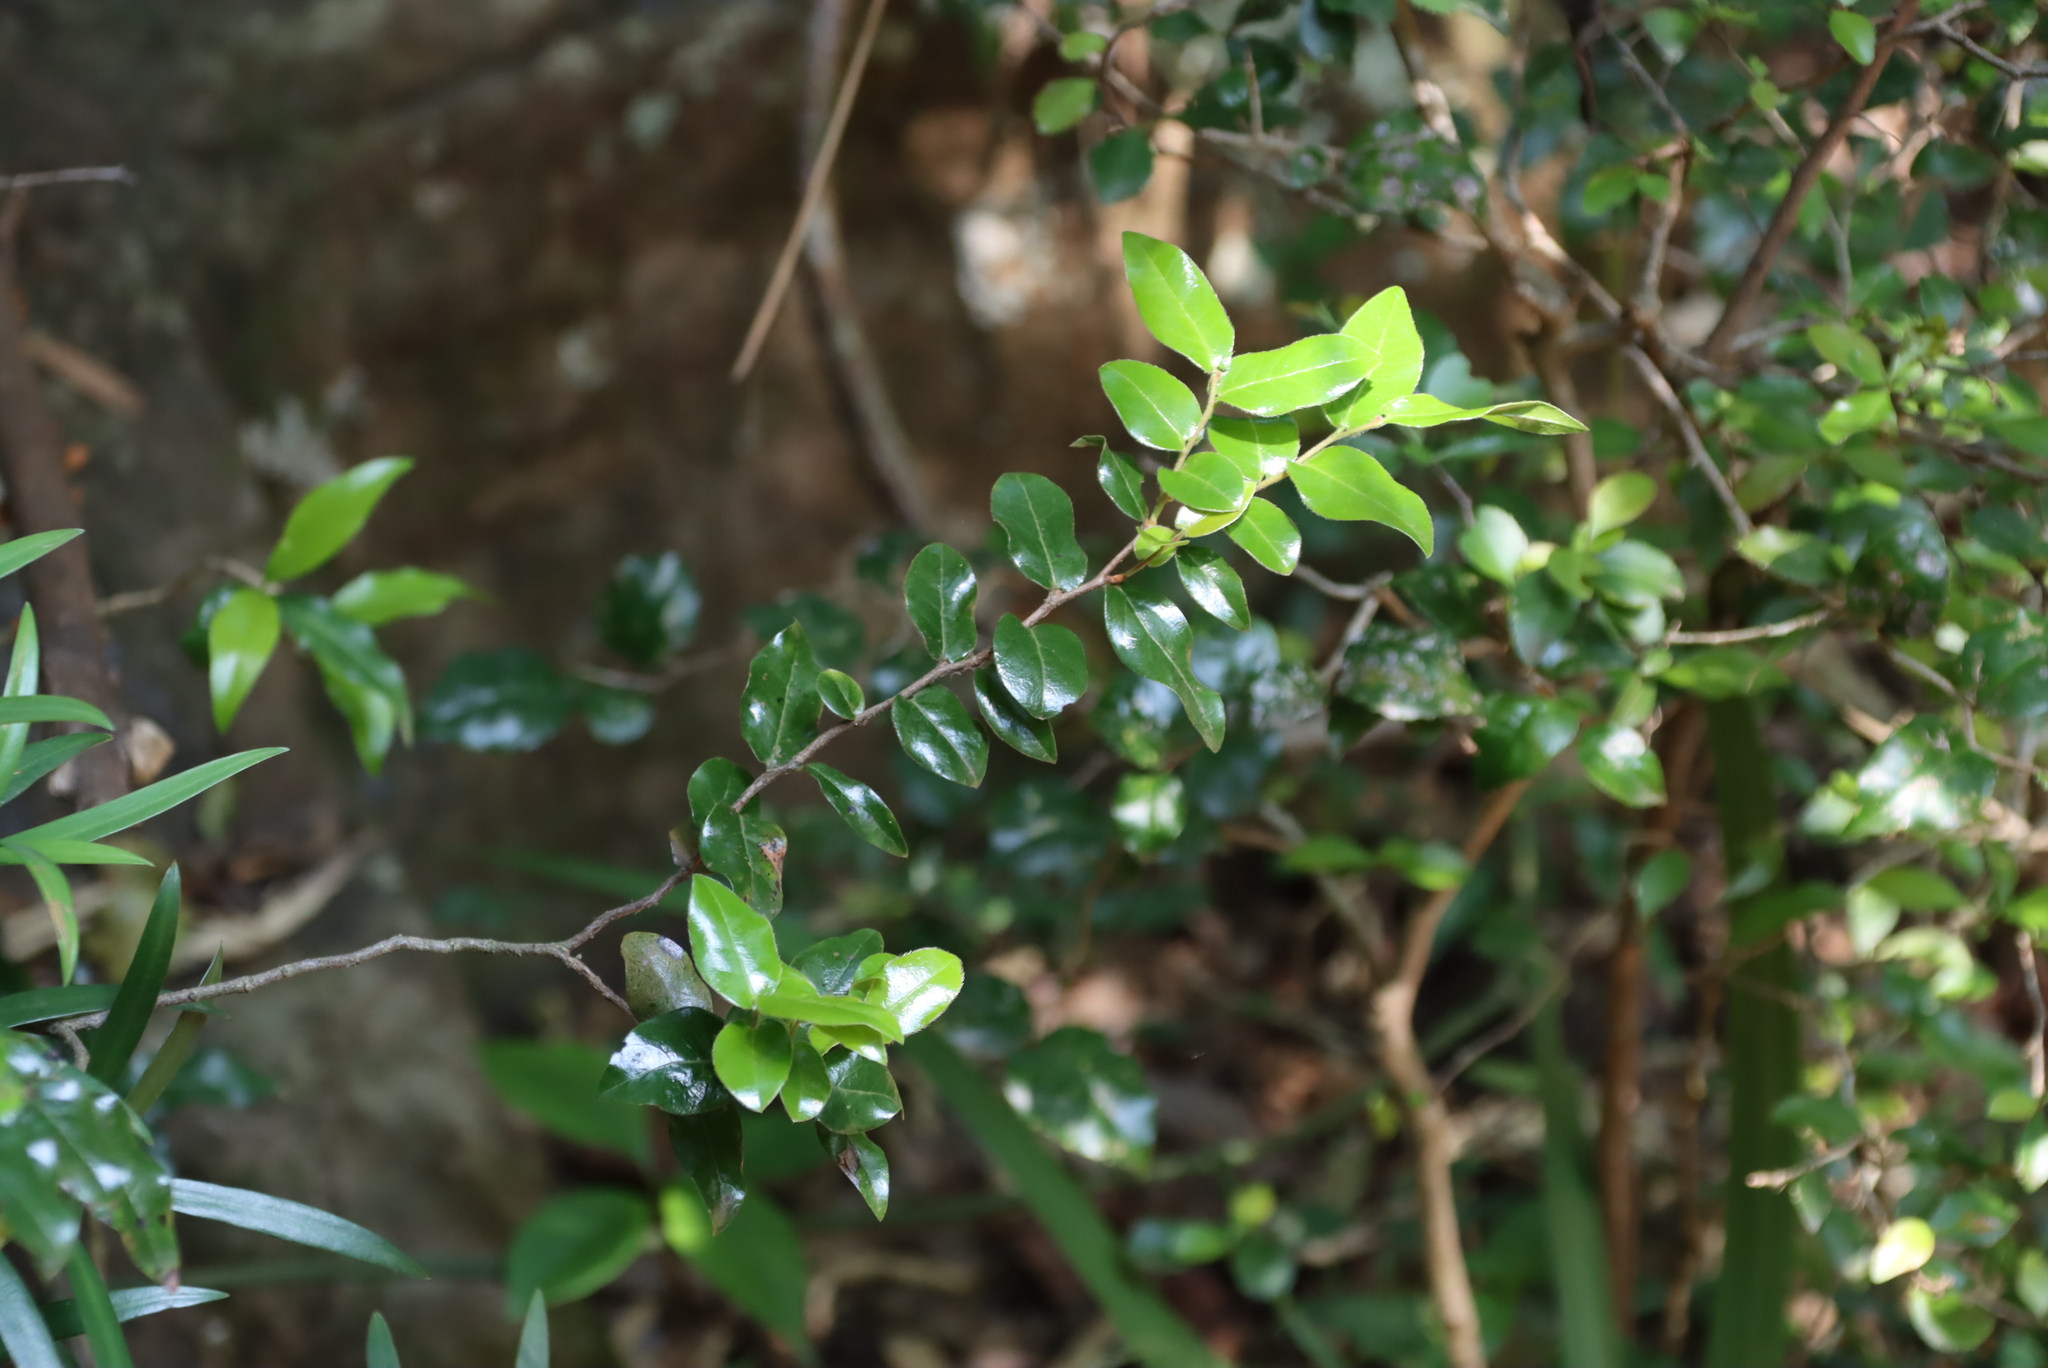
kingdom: Plantae
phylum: Tracheophyta
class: Magnoliopsida
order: Ericales
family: Ebenaceae
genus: Diospyros
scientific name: Diospyros whyteana
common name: Bladder-nut
